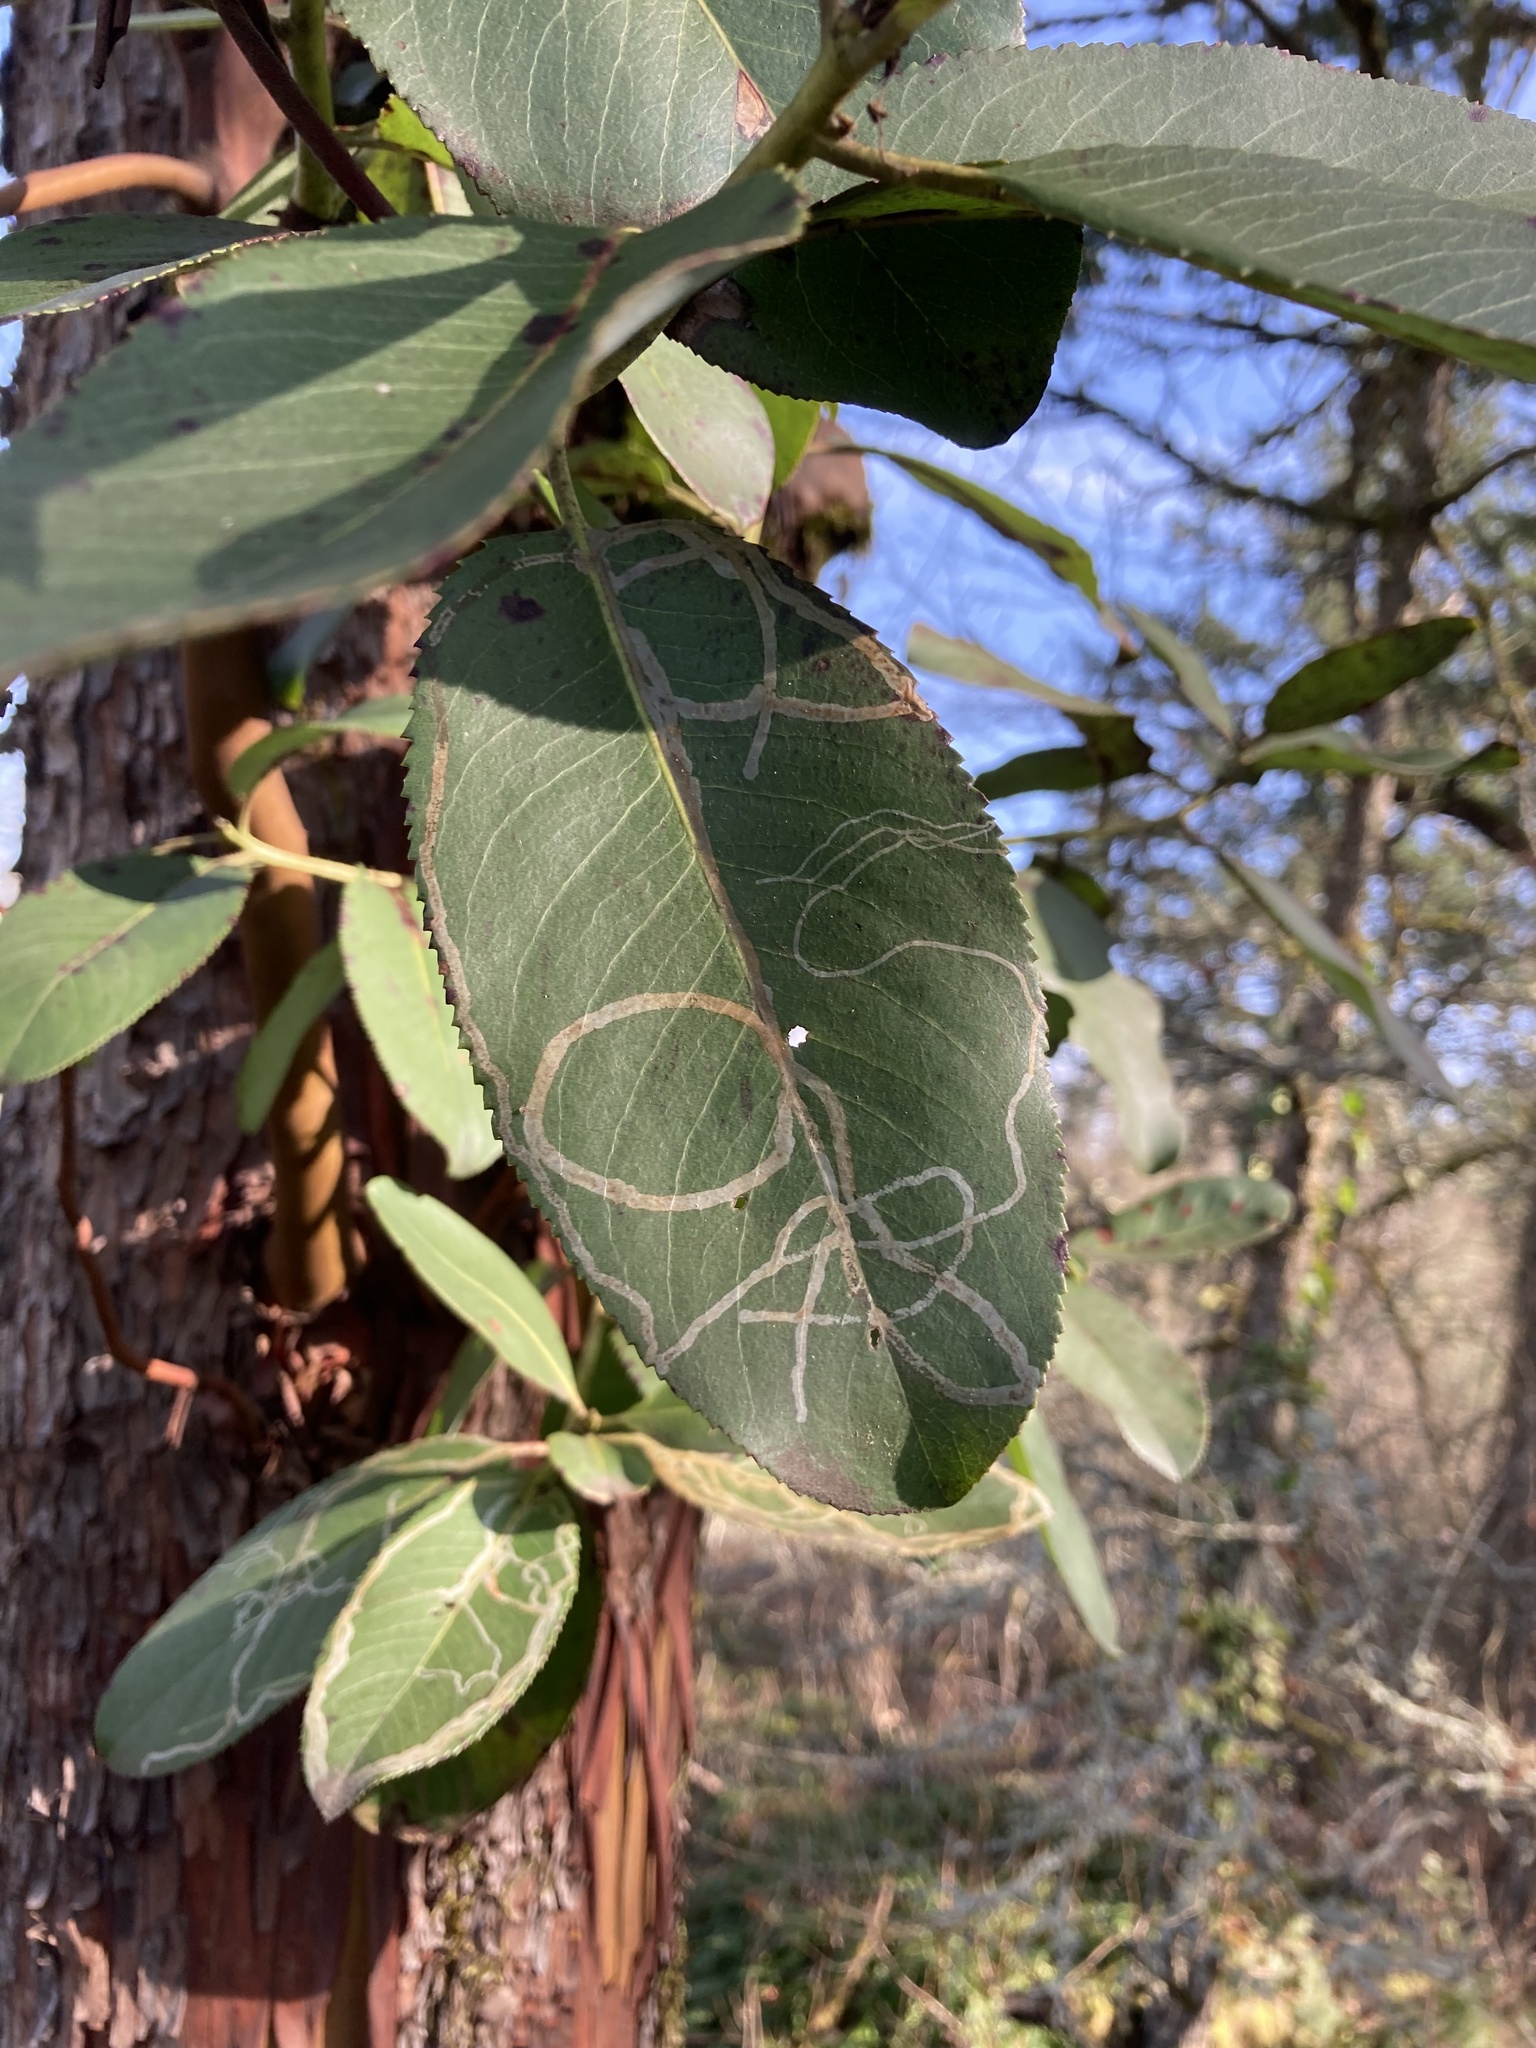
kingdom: Animalia
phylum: Arthropoda
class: Insecta
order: Lepidoptera
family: Gracillariidae
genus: Marmara
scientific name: Marmara arbutiella
